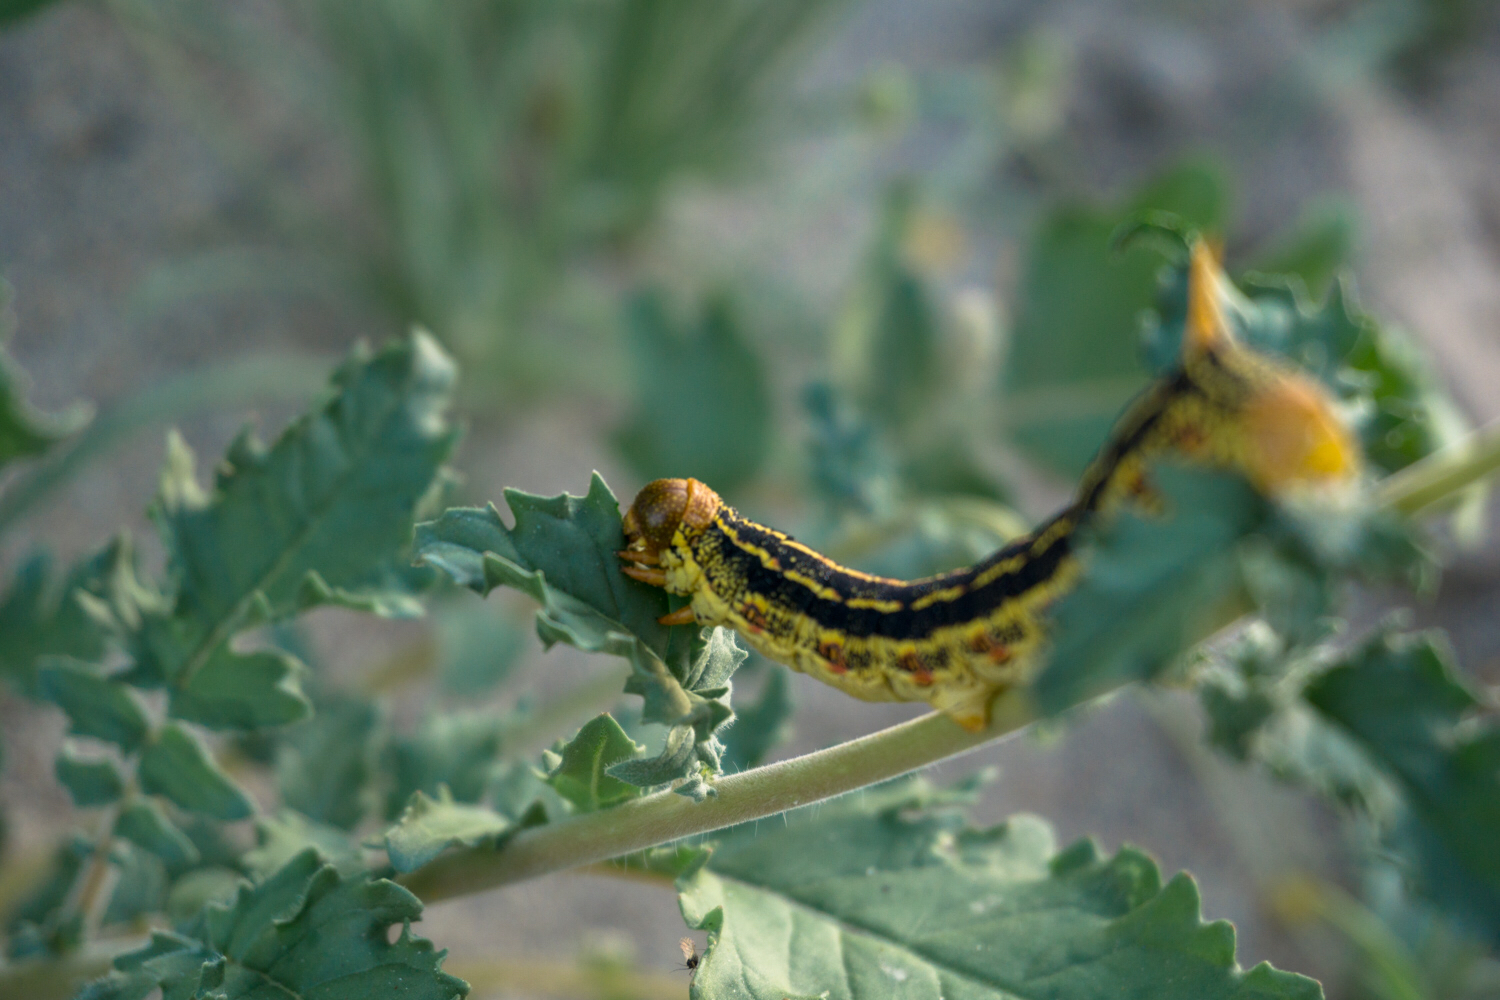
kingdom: Animalia
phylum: Arthropoda
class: Insecta
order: Lepidoptera
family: Sphingidae
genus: Hyles
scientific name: Hyles lineata
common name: White-lined sphinx
